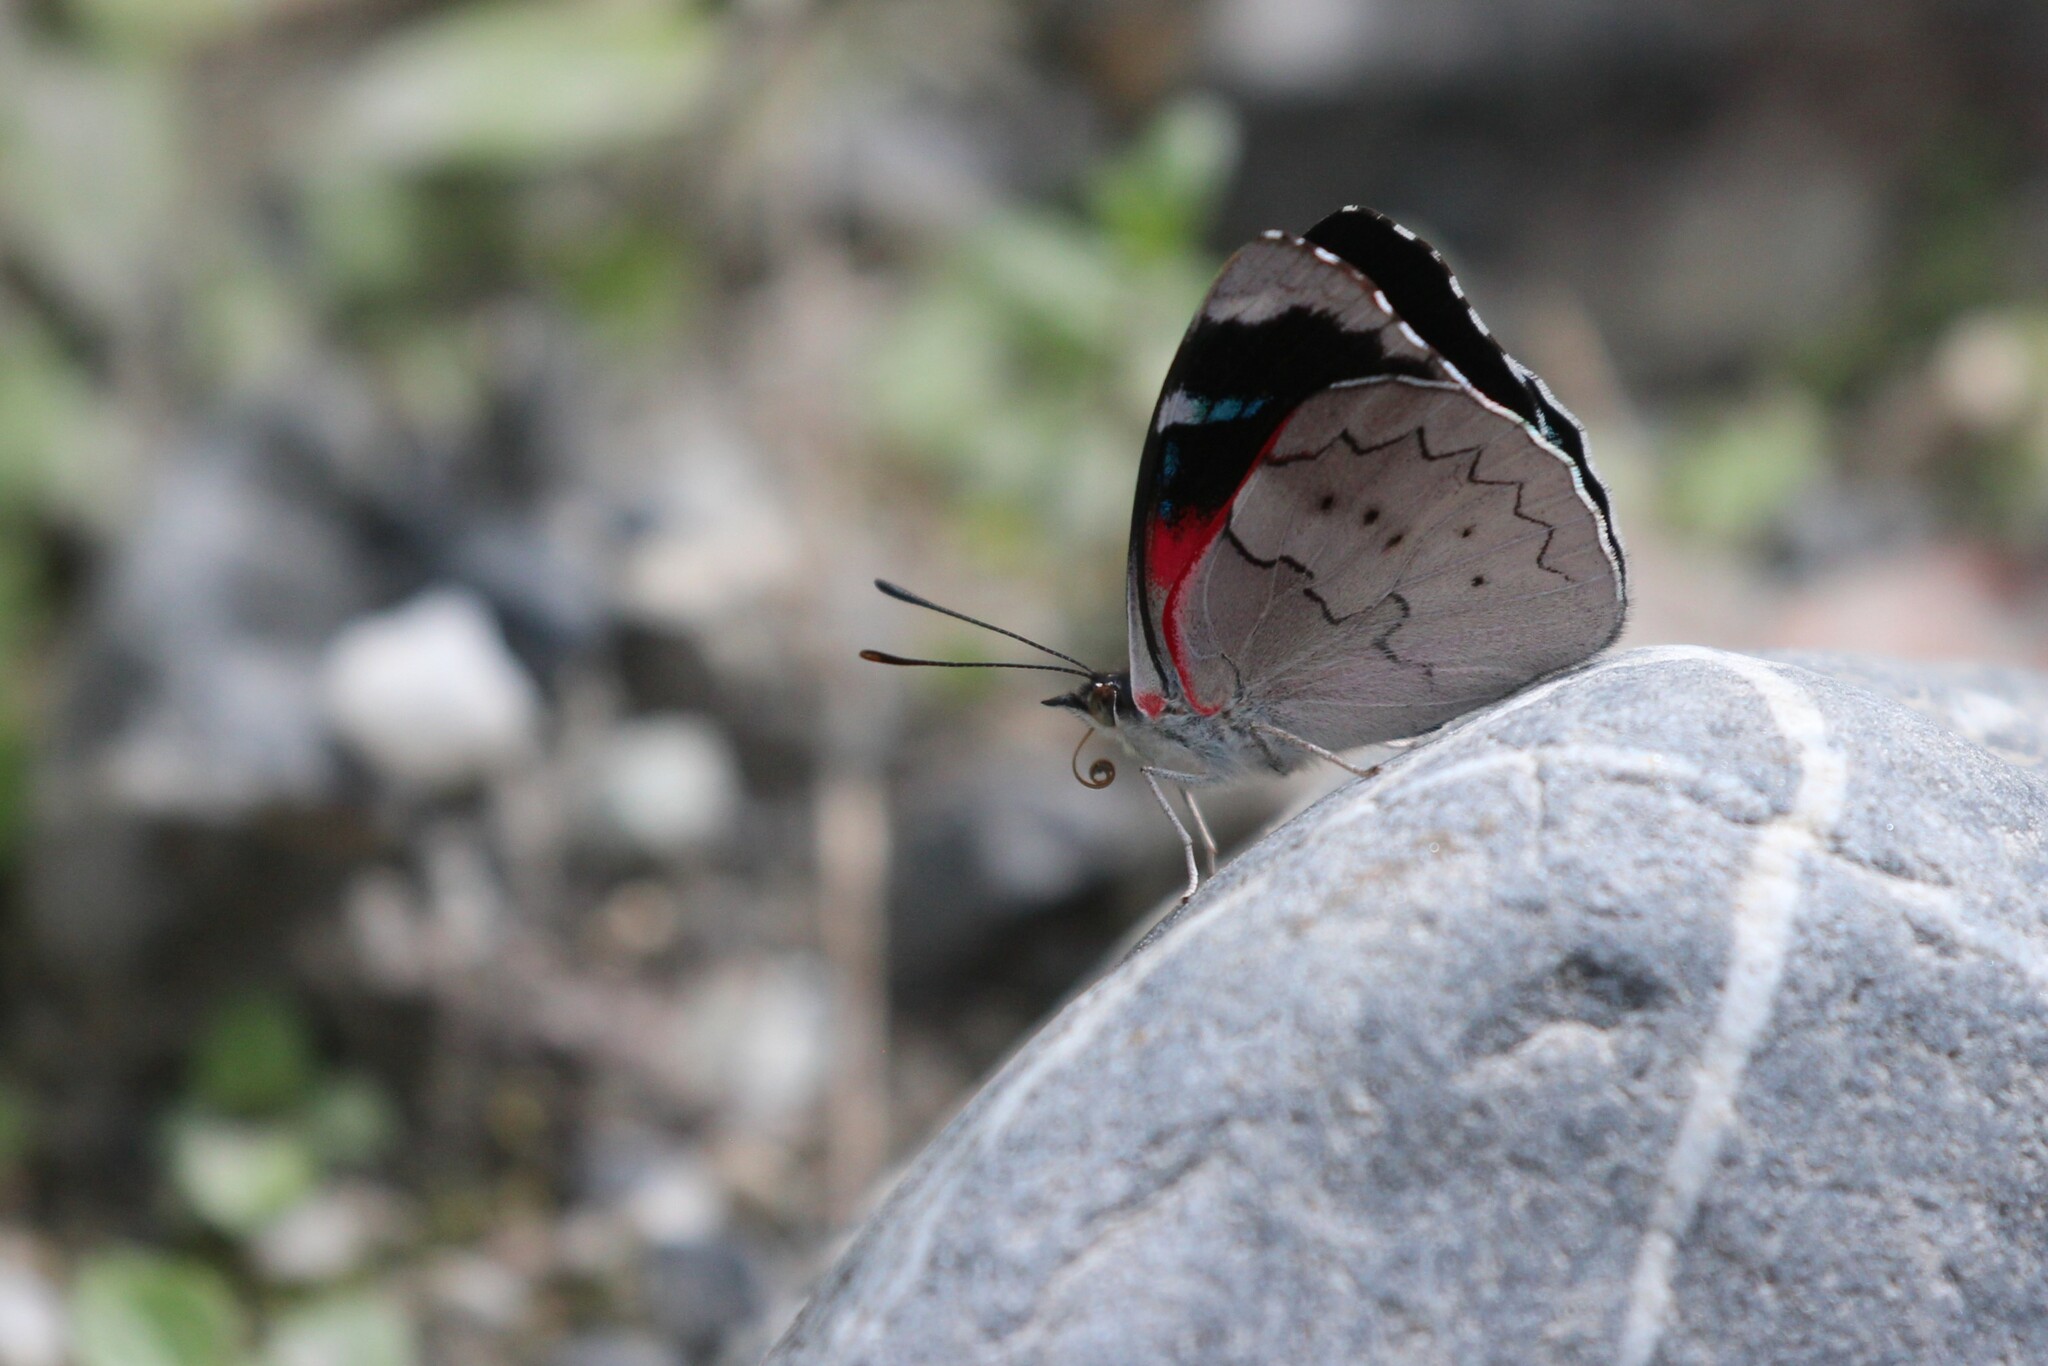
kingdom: Animalia
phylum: Arthropoda
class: Insecta
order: Lepidoptera
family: Nymphalidae
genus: Perisama
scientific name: Perisama lebasii
